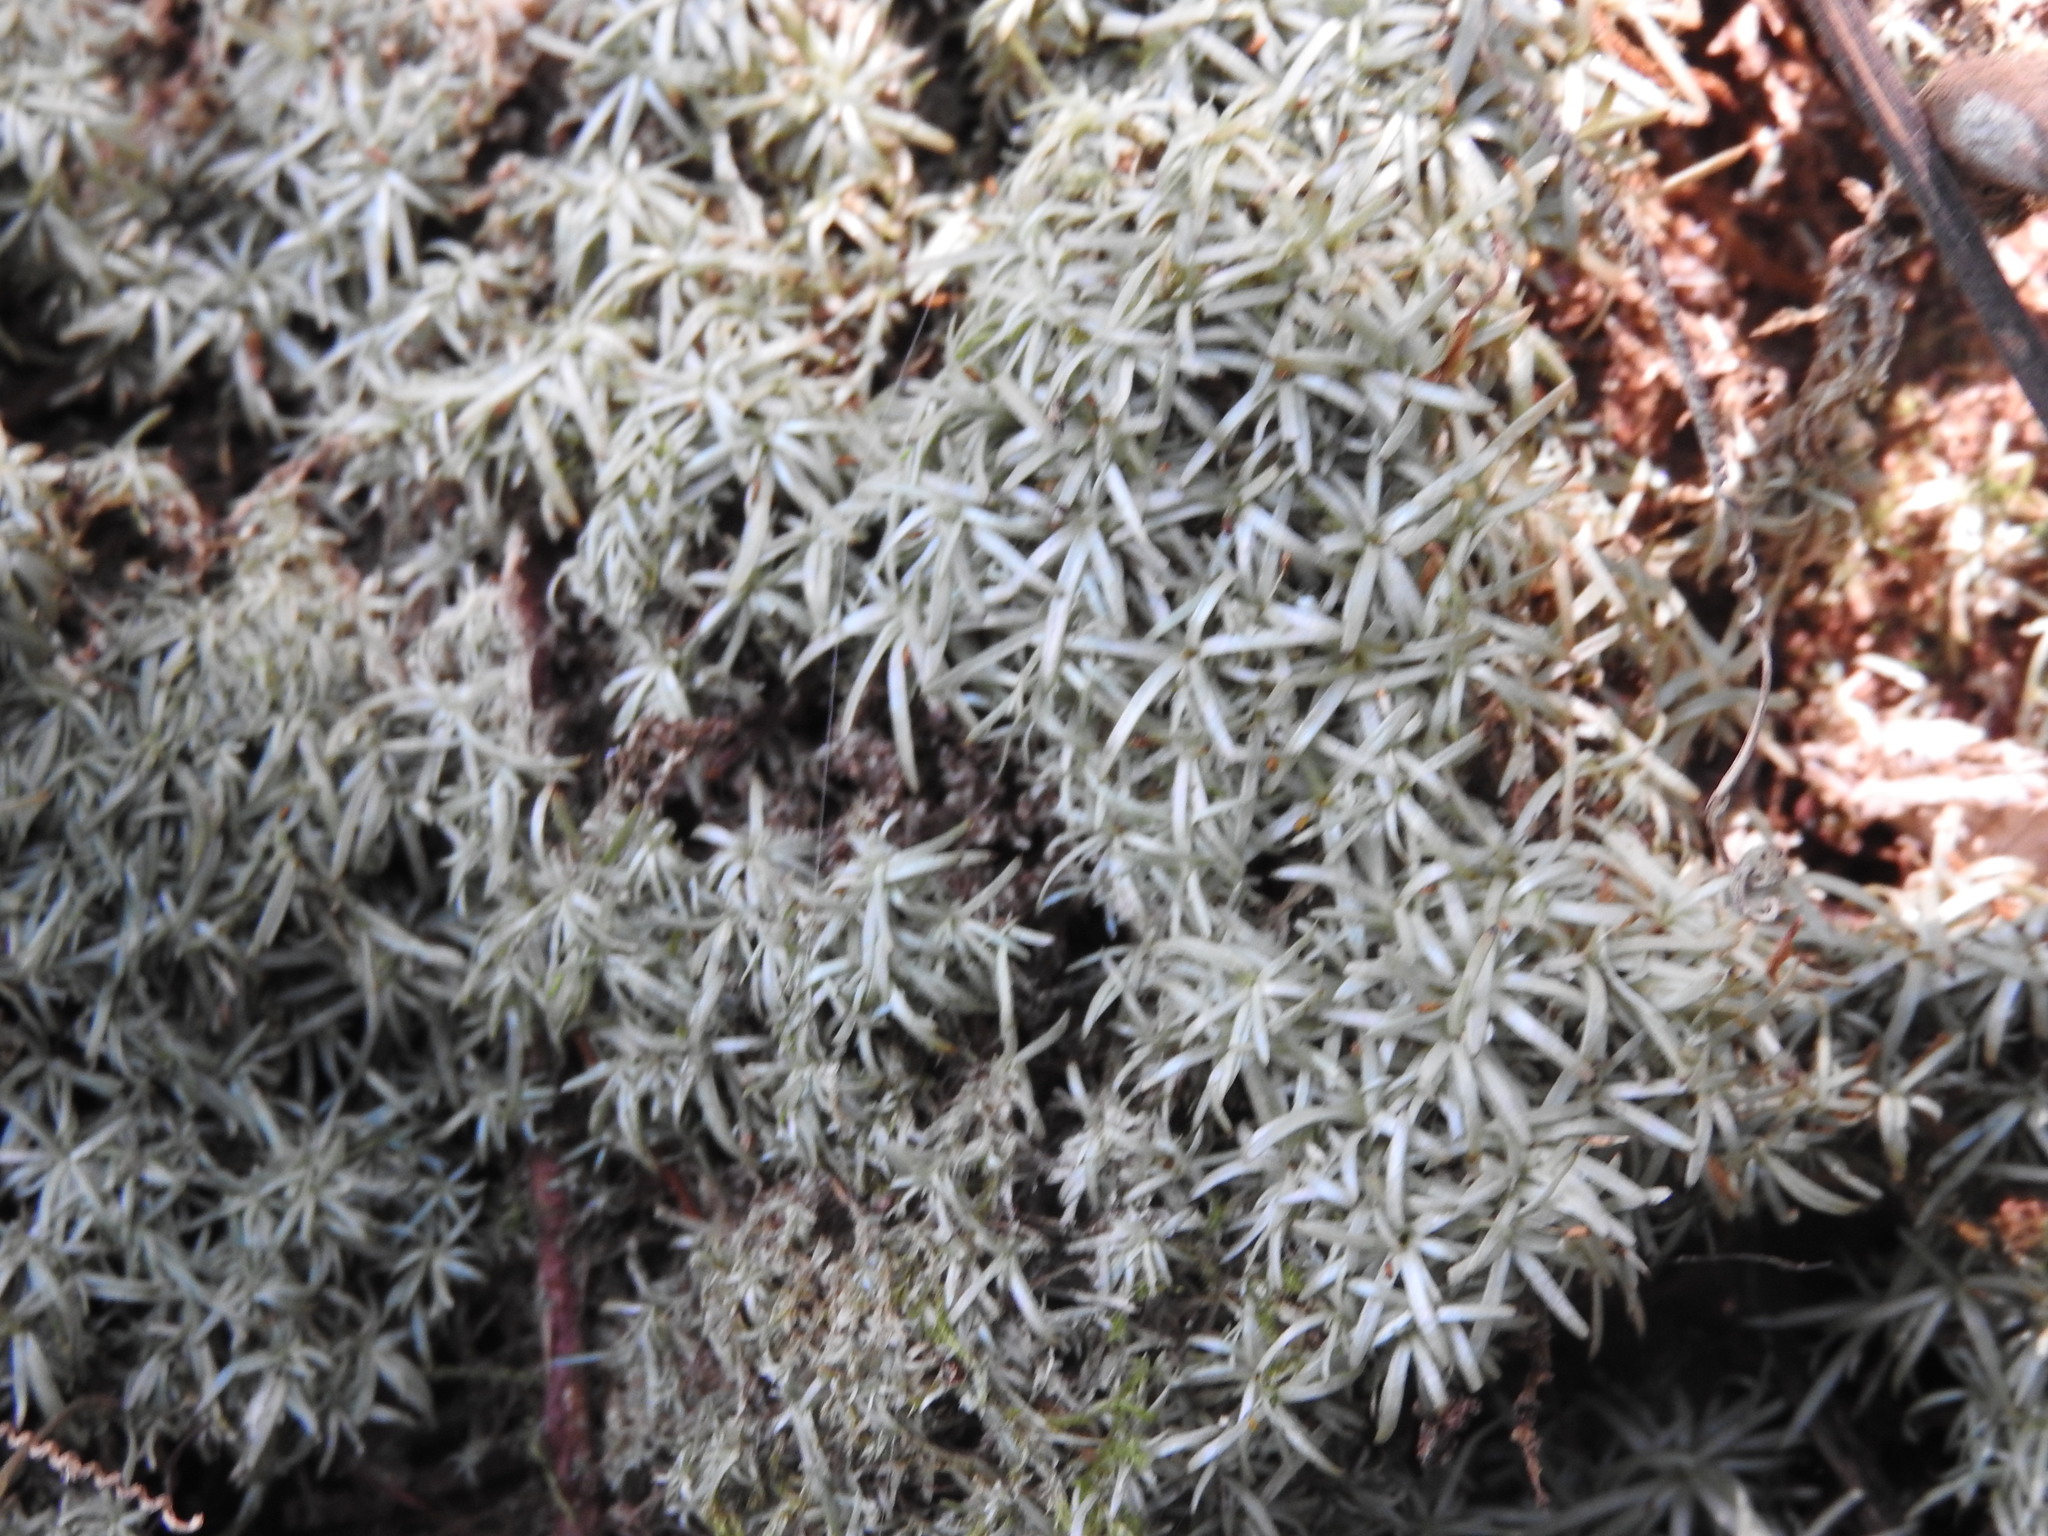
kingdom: Plantae
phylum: Bryophyta
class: Bryopsida
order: Dicranales
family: Octoblepharaceae
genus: Octoblepharum
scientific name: Octoblepharum albidum
